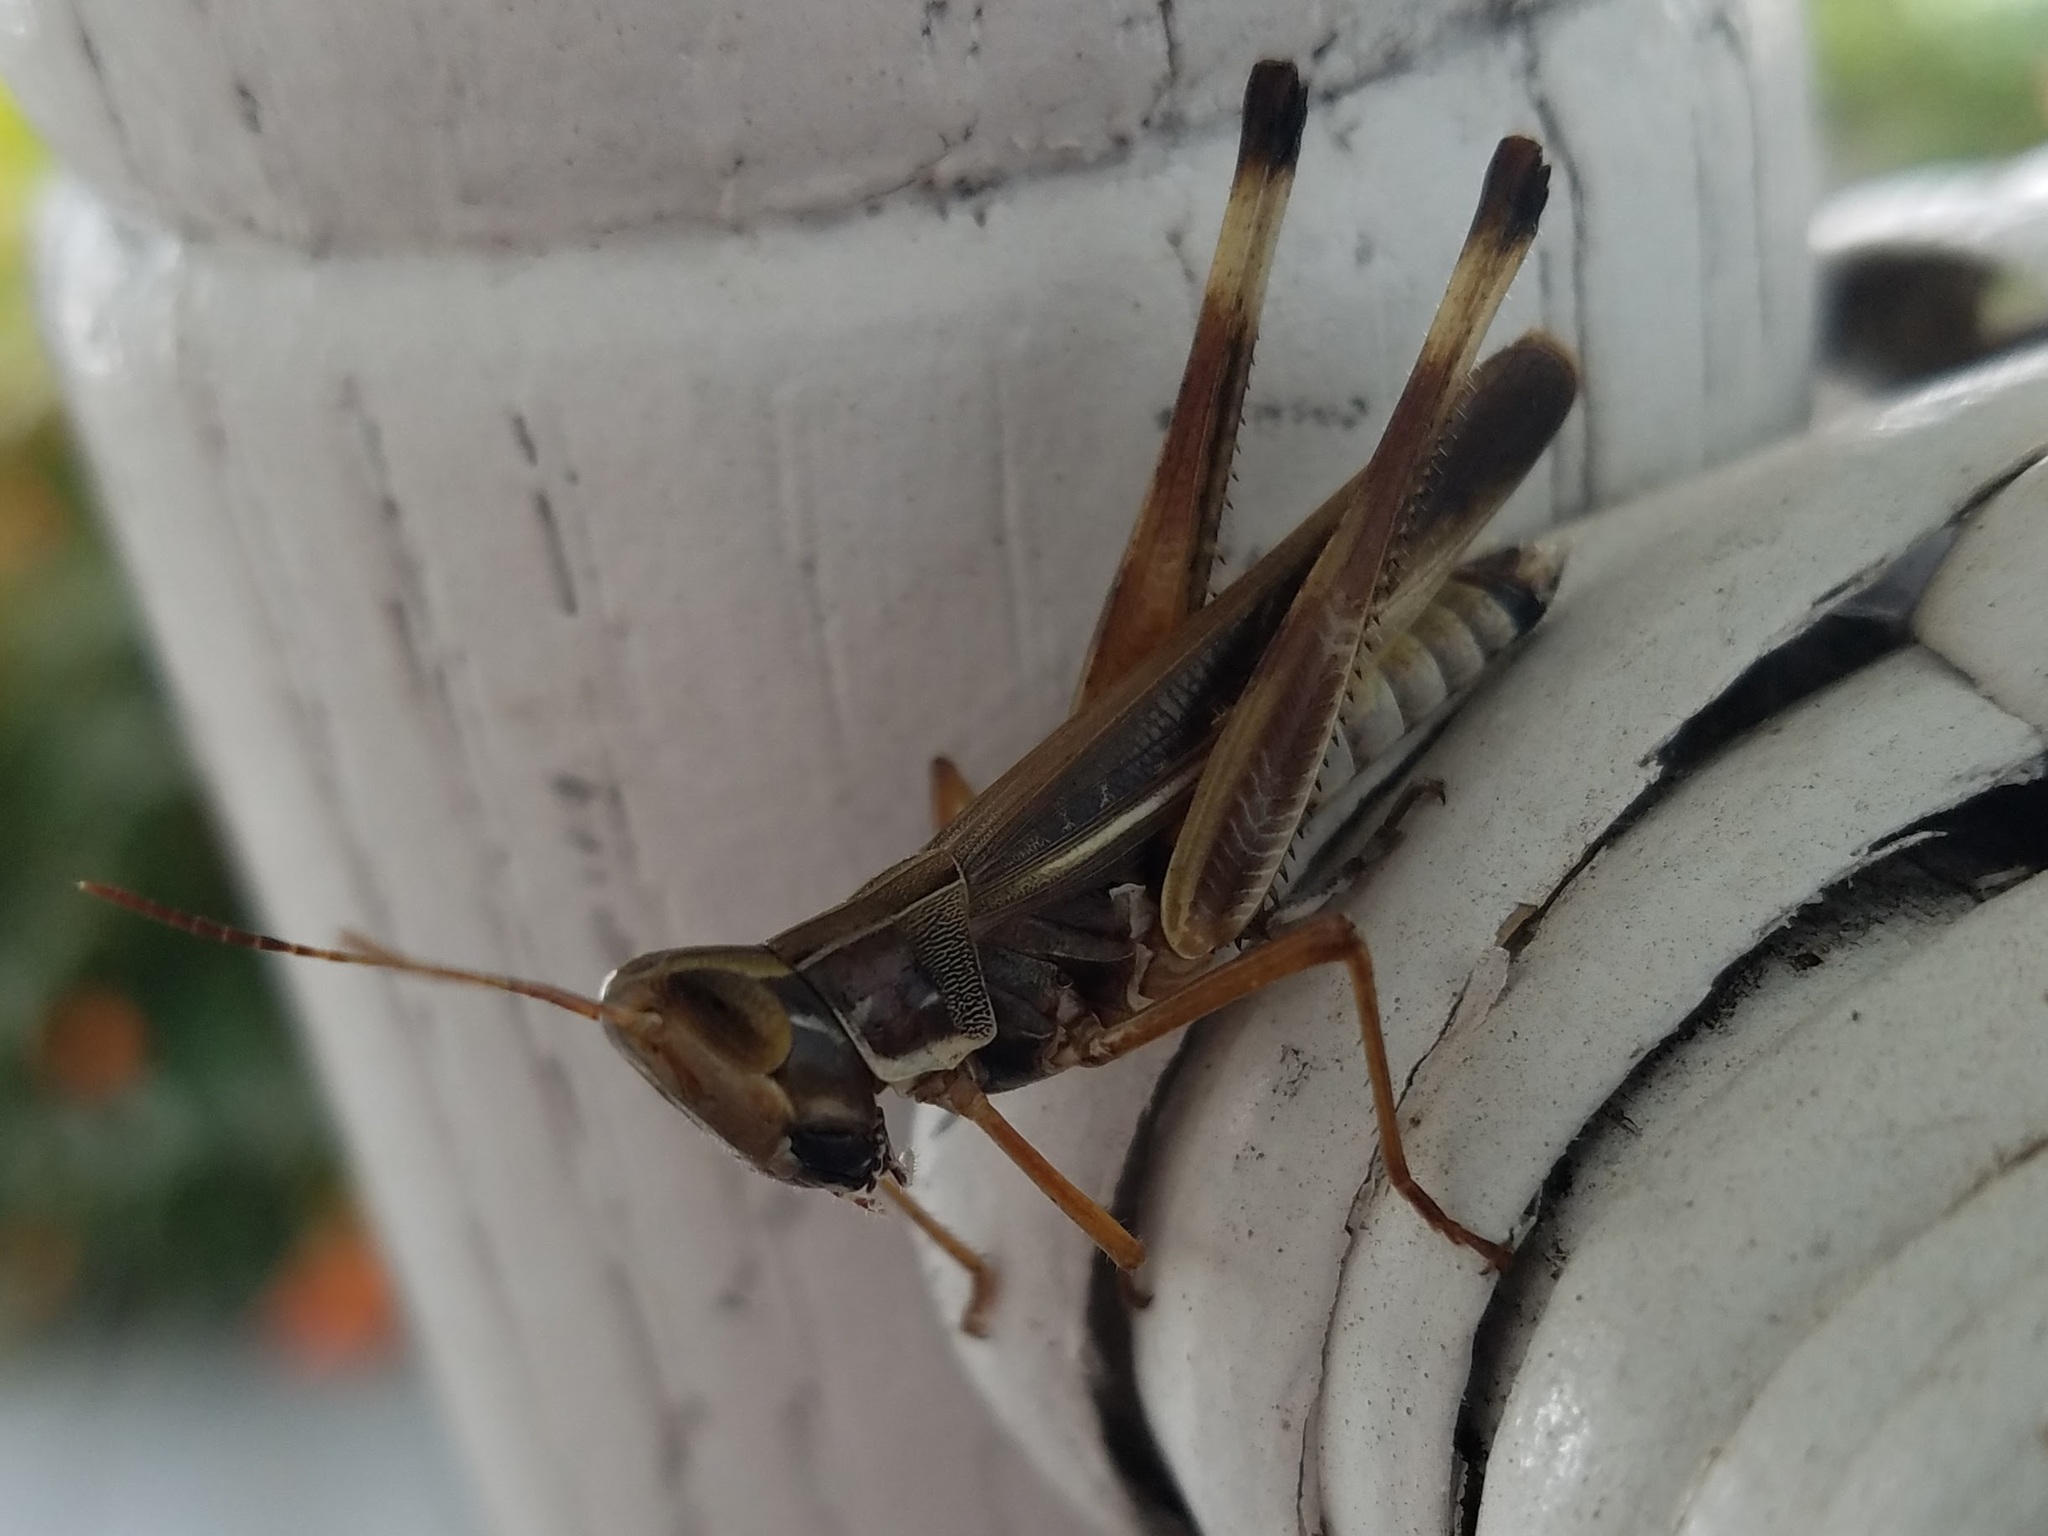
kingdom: Animalia
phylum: Arthropoda
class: Insecta
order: Orthoptera
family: Acrididae
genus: Syrbula
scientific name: Syrbula admirabilis
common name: Handsome grasshopper
